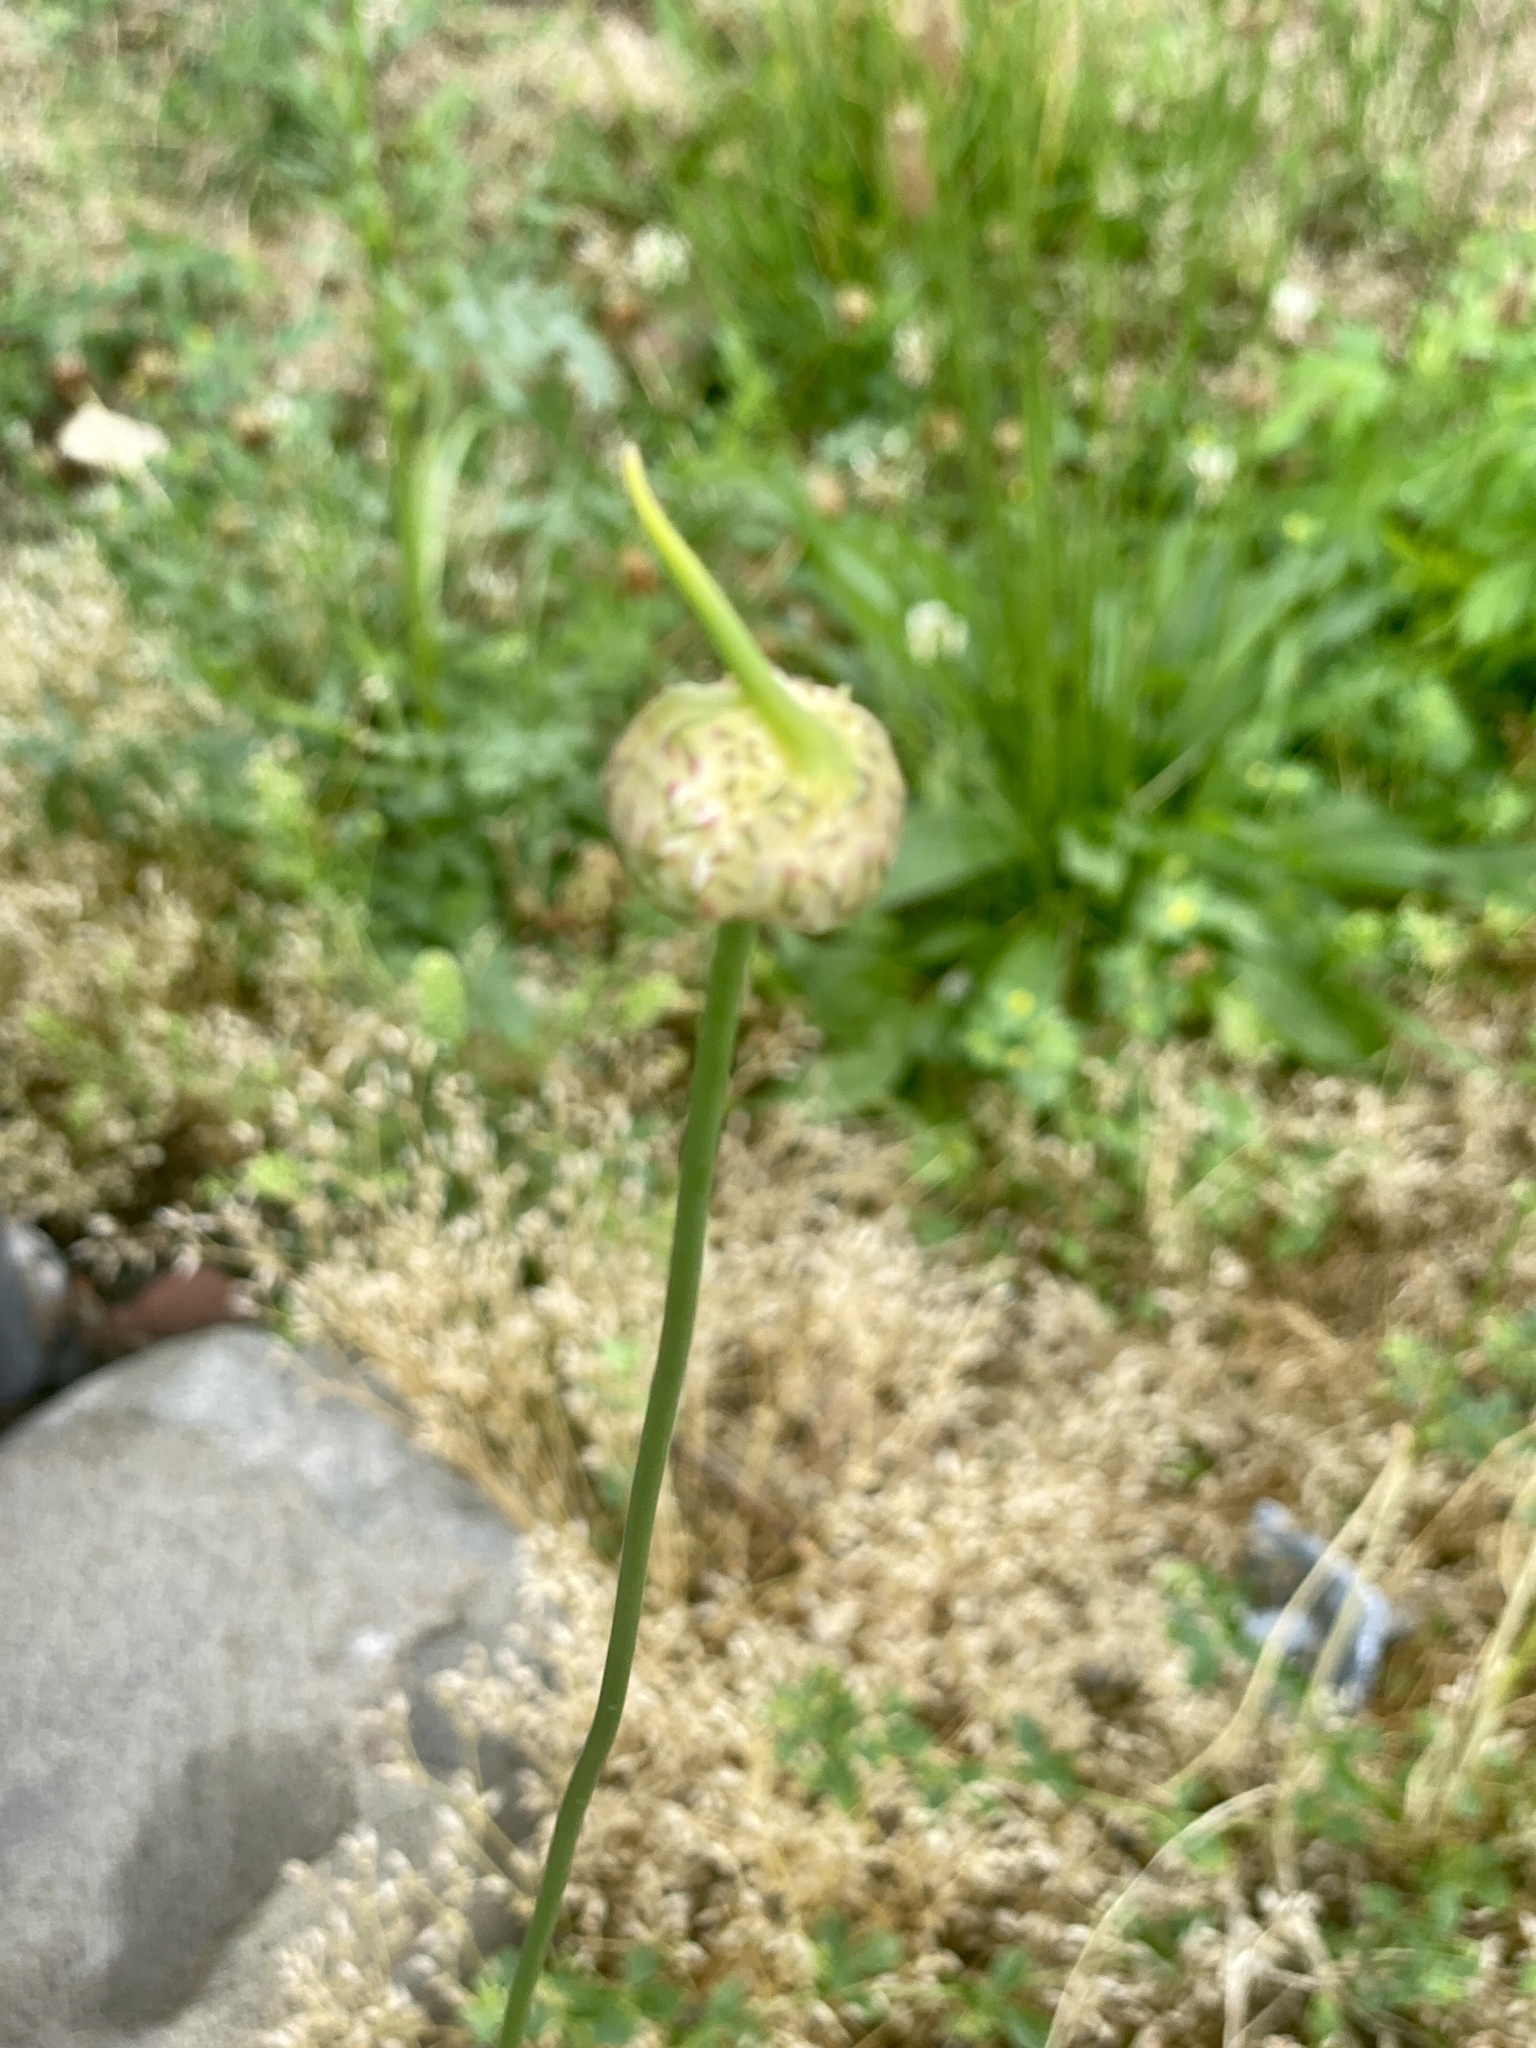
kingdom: Plantae
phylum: Tracheophyta
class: Liliopsida
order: Asparagales
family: Amaryllidaceae
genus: Allium
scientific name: Allium vineale
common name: Crow garlic
